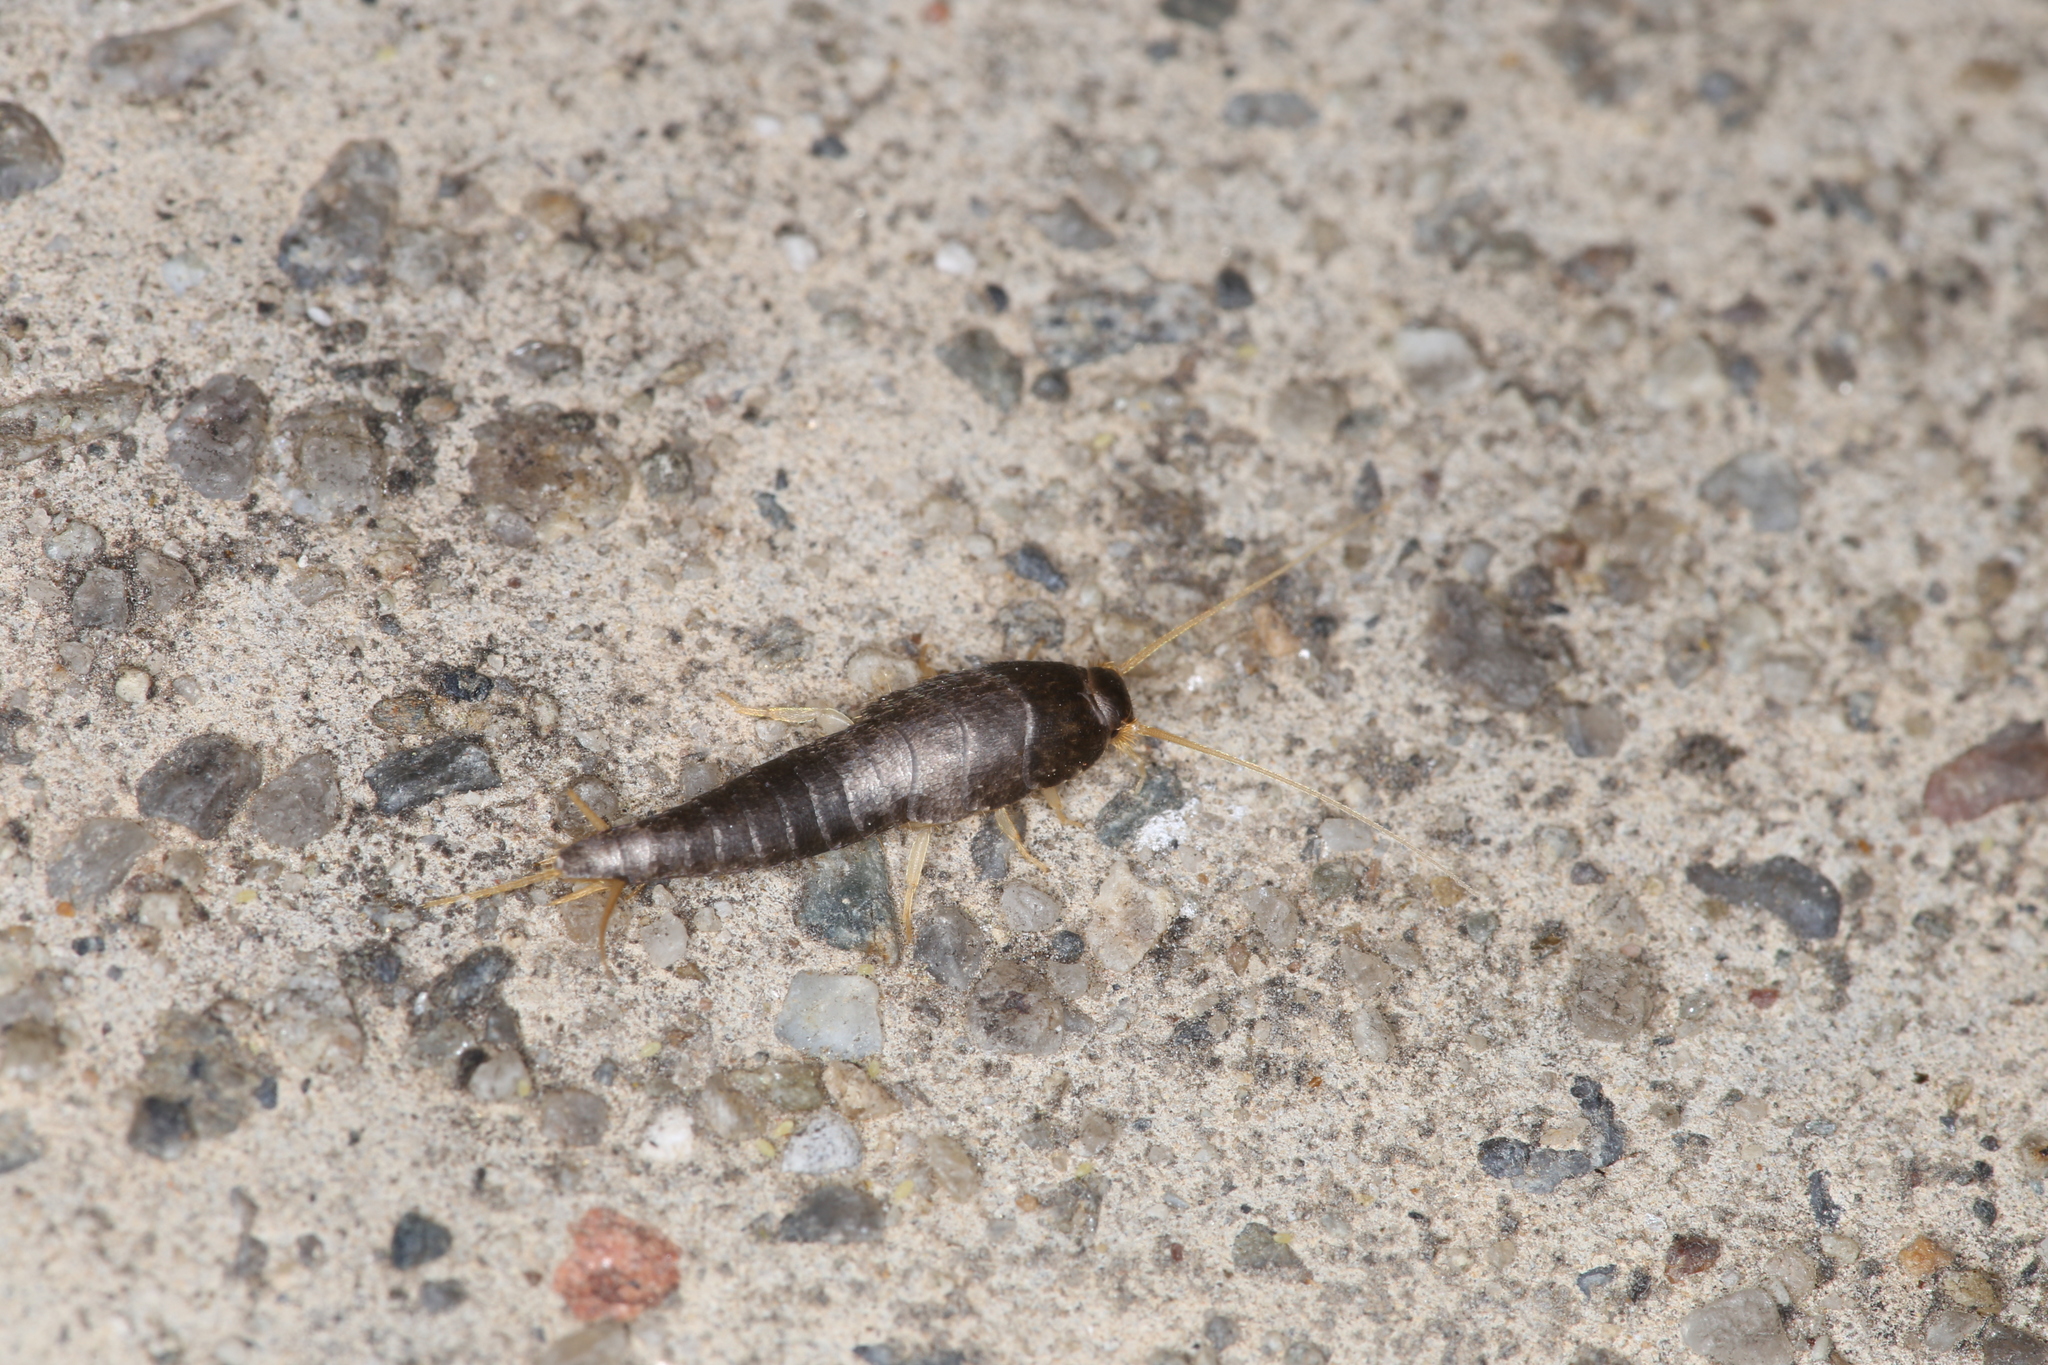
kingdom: Animalia
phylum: Arthropoda
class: Insecta
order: Zygentoma
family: Lepismatidae
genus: Lepisma
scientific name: Lepisma saccharinum
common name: Silverfish
